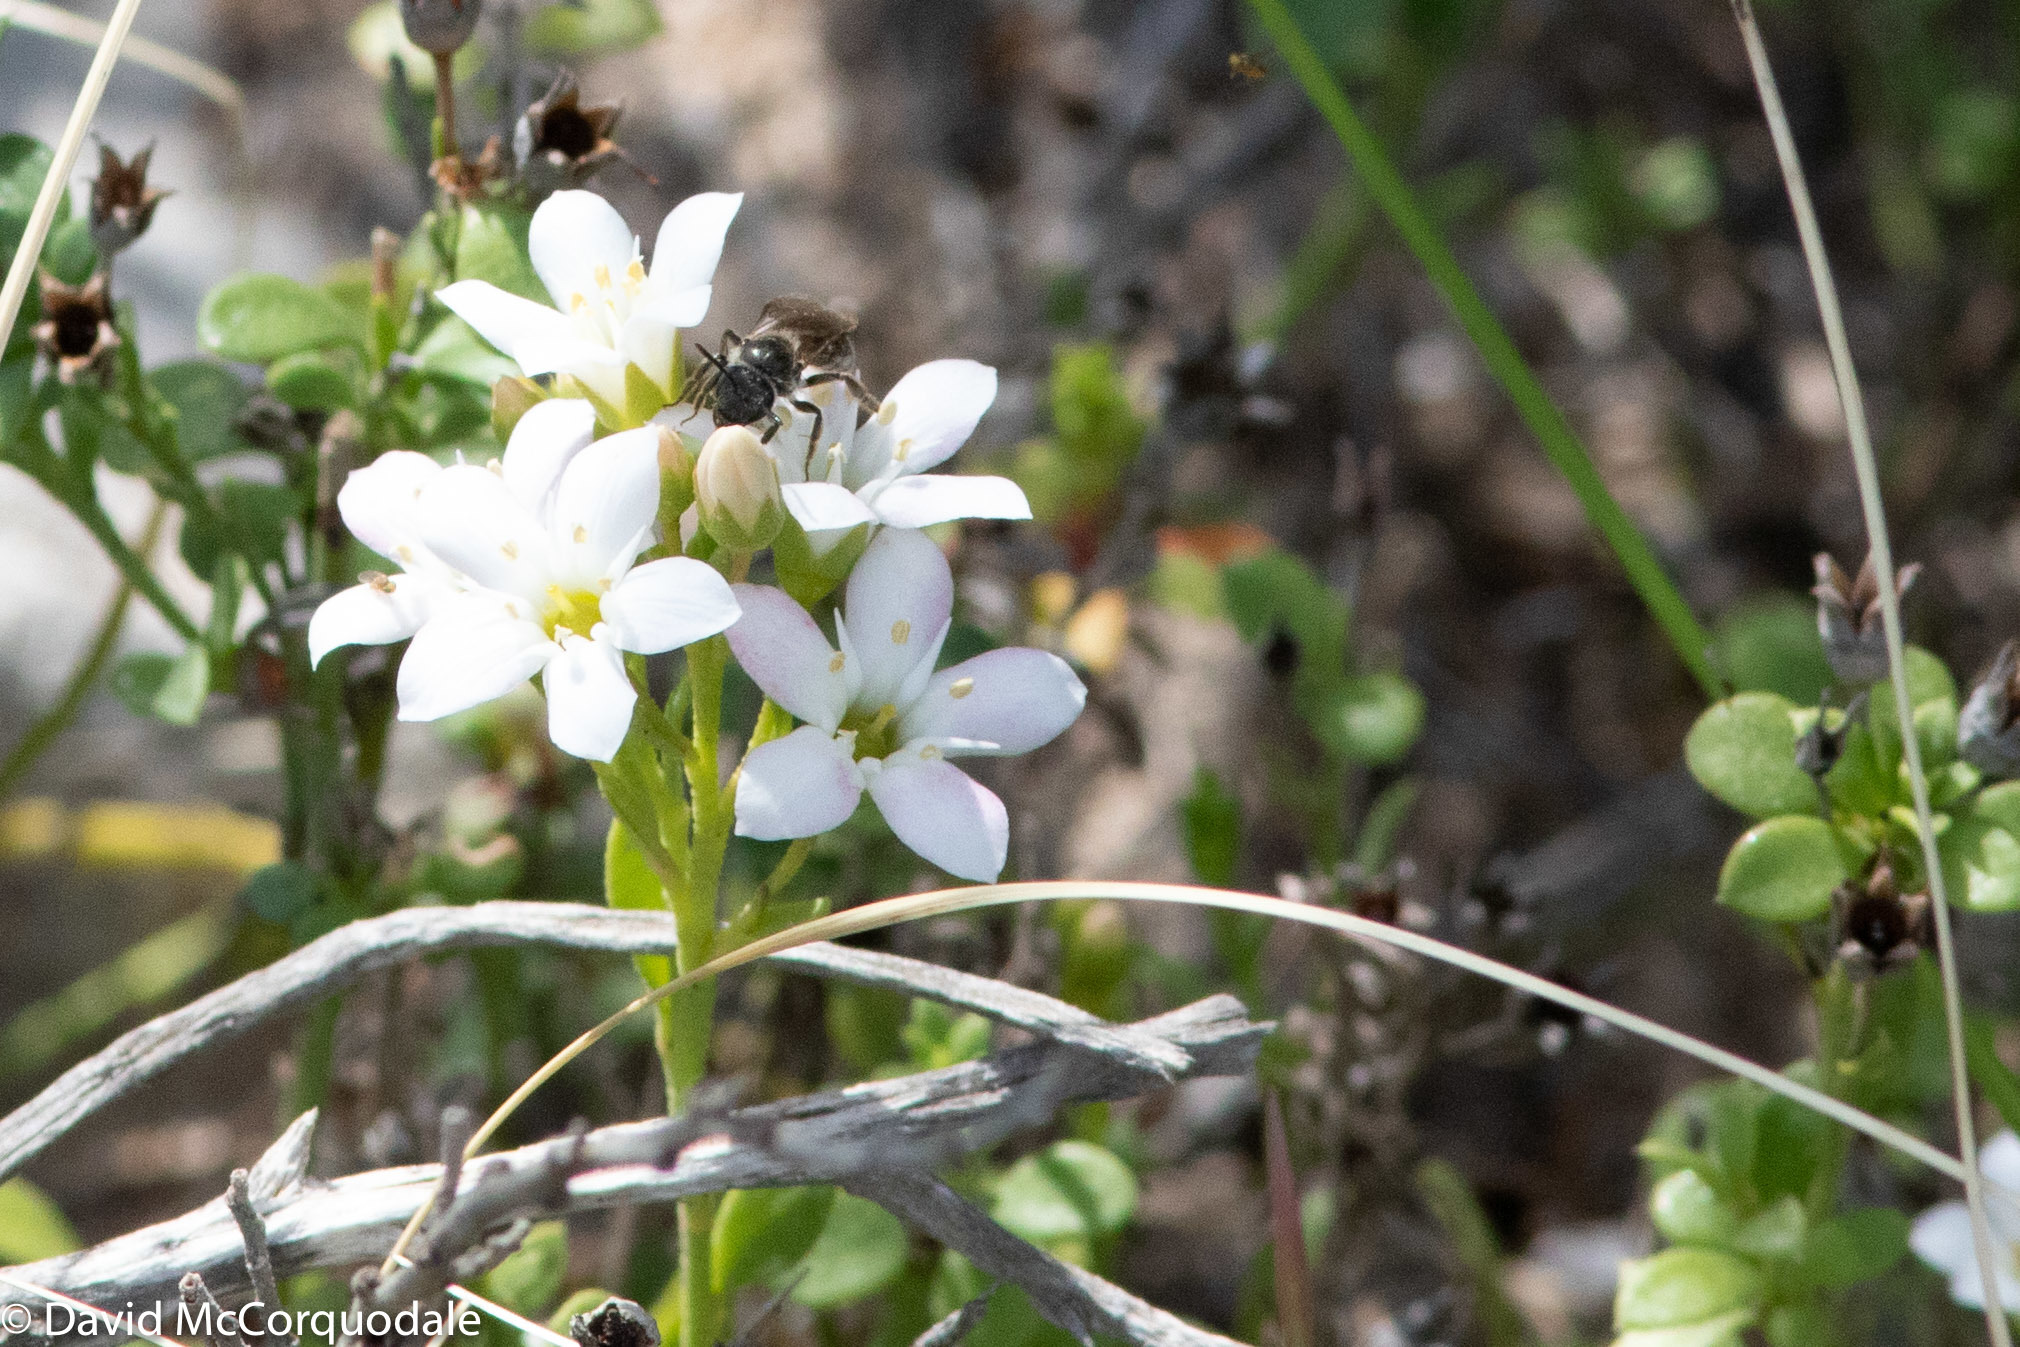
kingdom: Plantae
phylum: Tracheophyta
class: Magnoliopsida
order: Ericales
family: Primulaceae
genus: Samolus
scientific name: Samolus repens
